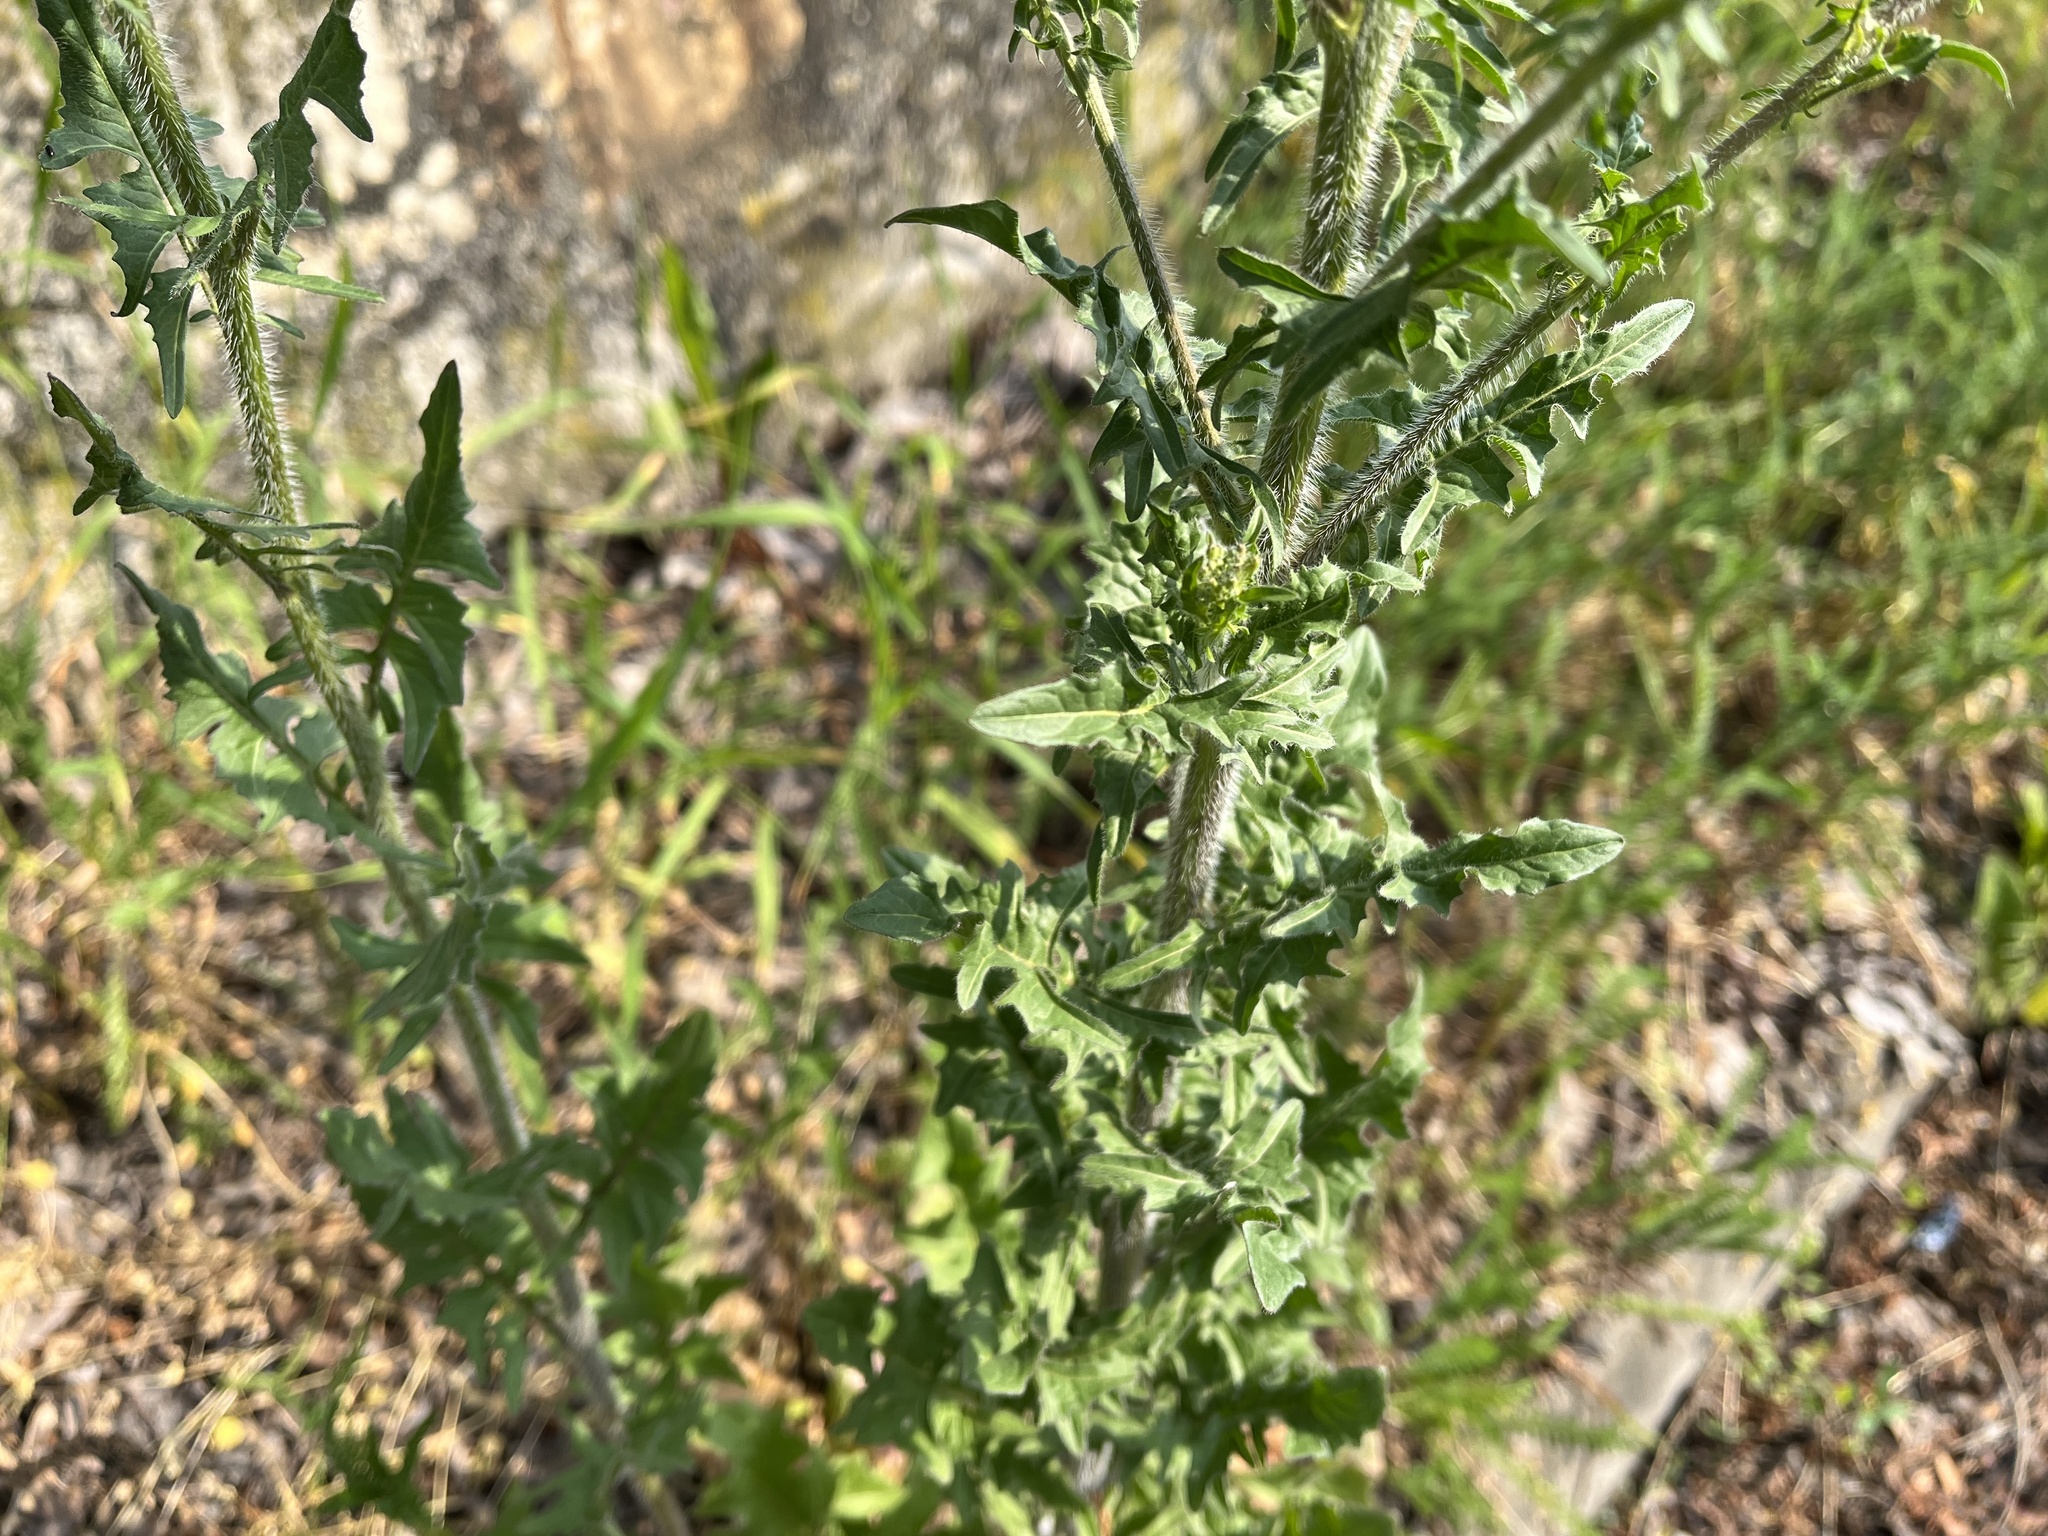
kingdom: Plantae
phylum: Tracheophyta
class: Magnoliopsida
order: Brassicales
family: Brassicaceae
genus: Sisymbrium
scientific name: Sisymbrium loeselii
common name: False london-rocket
